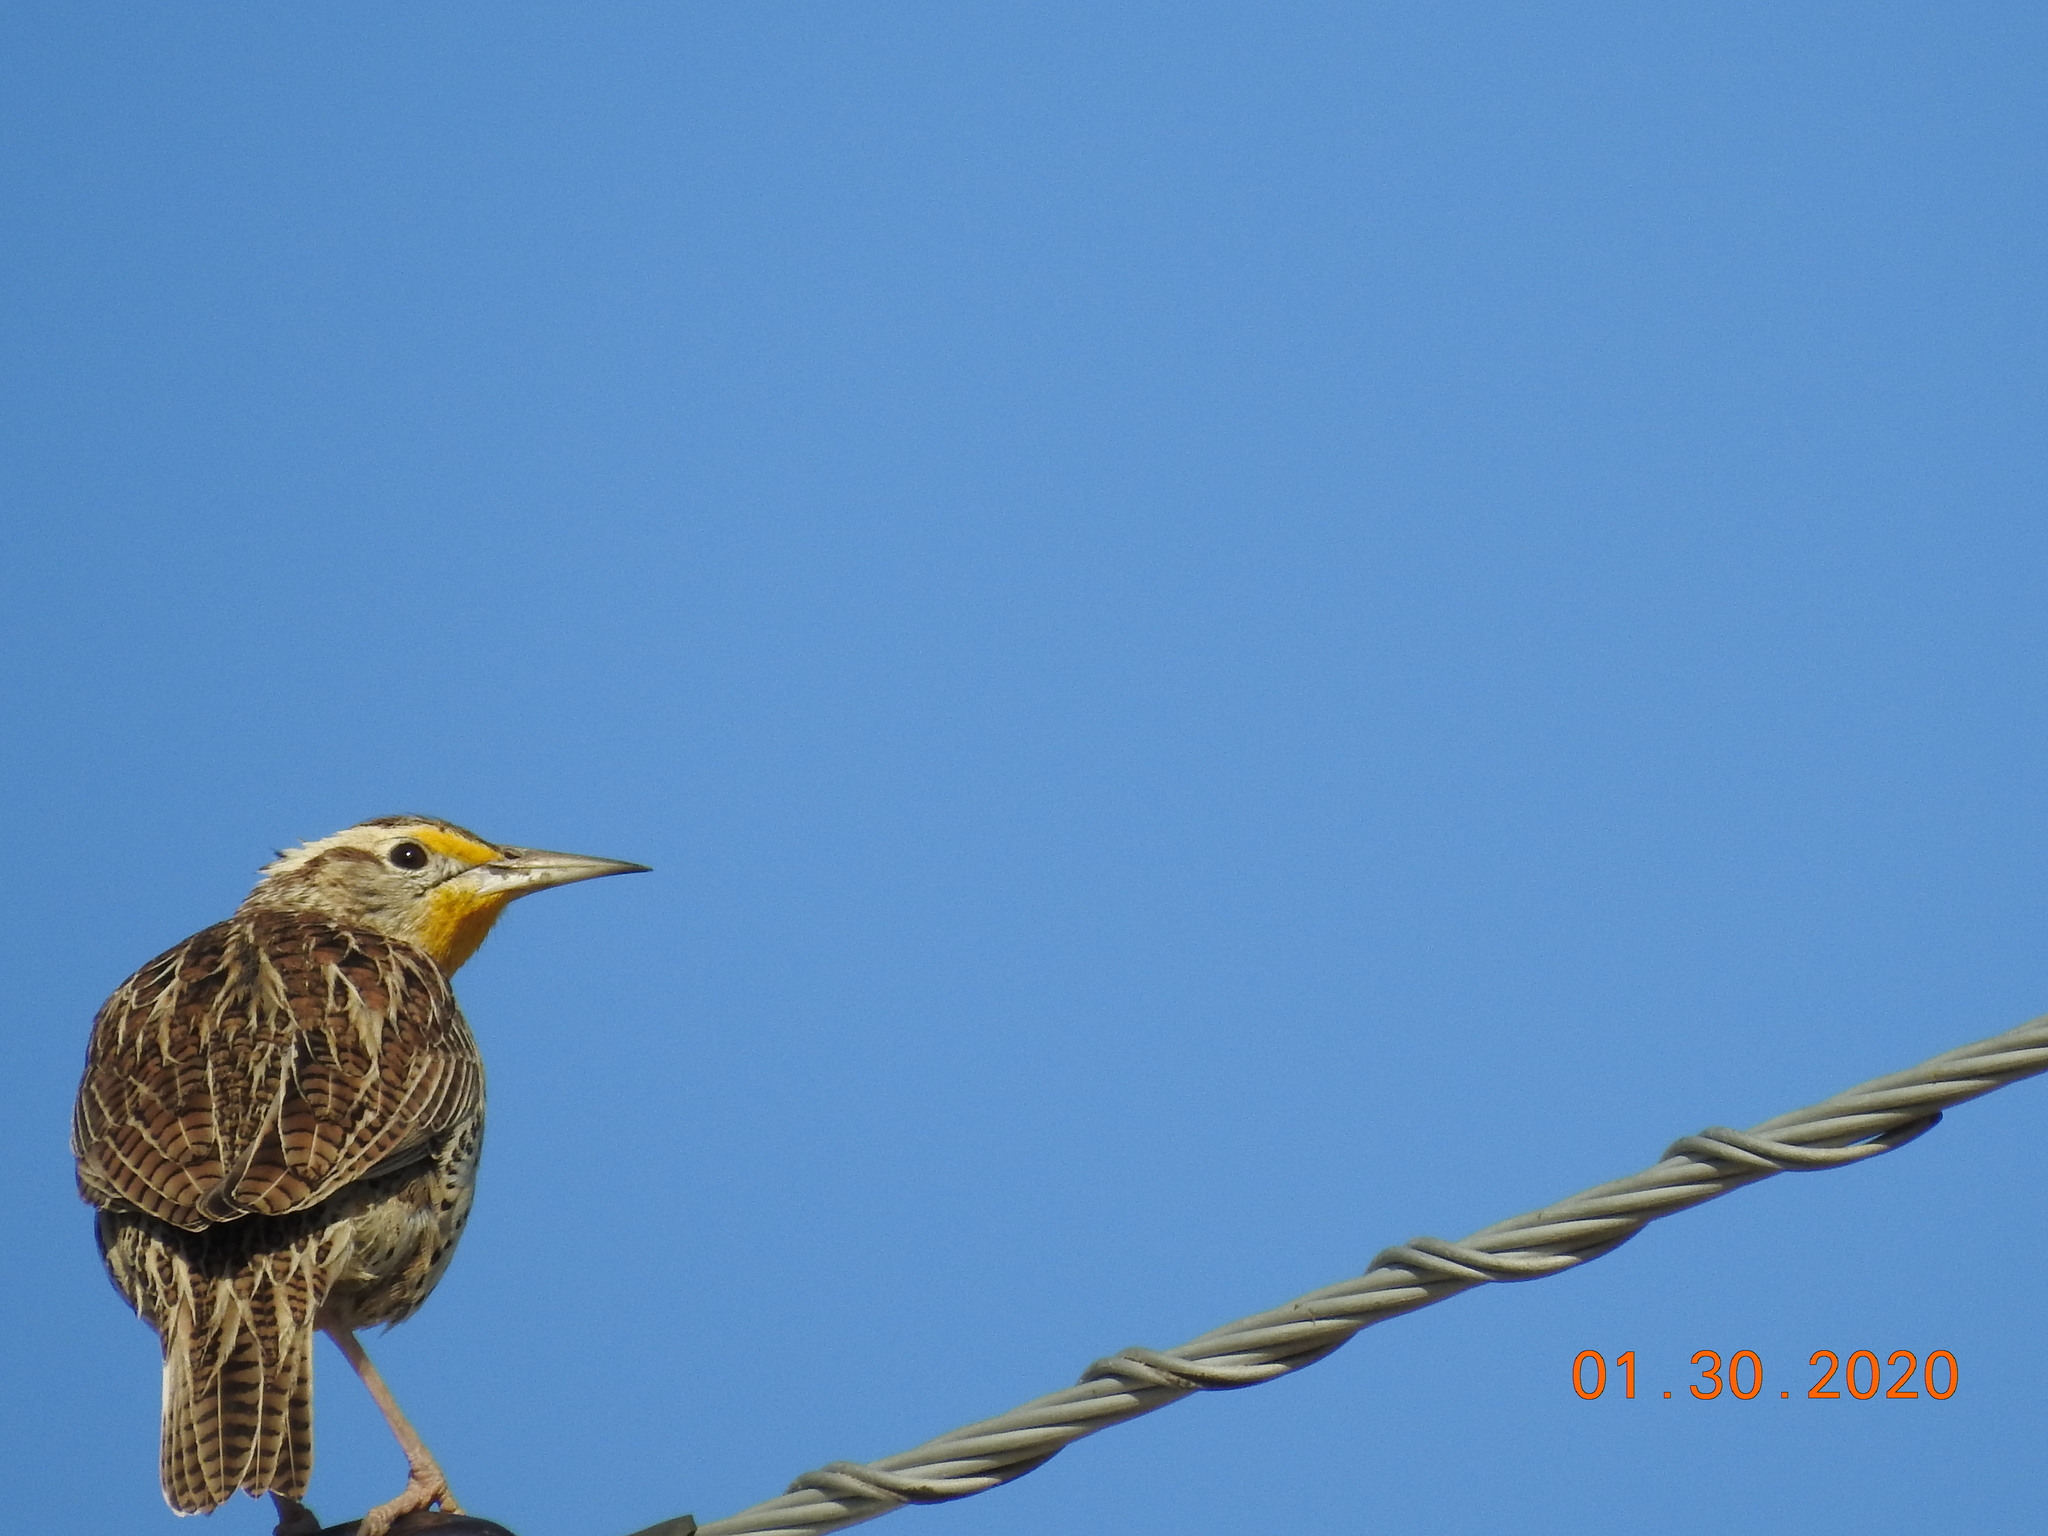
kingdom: Animalia
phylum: Chordata
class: Aves
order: Passeriformes
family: Icteridae
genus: Sturnella
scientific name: Sturnella neglecta
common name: Western meadowlark
